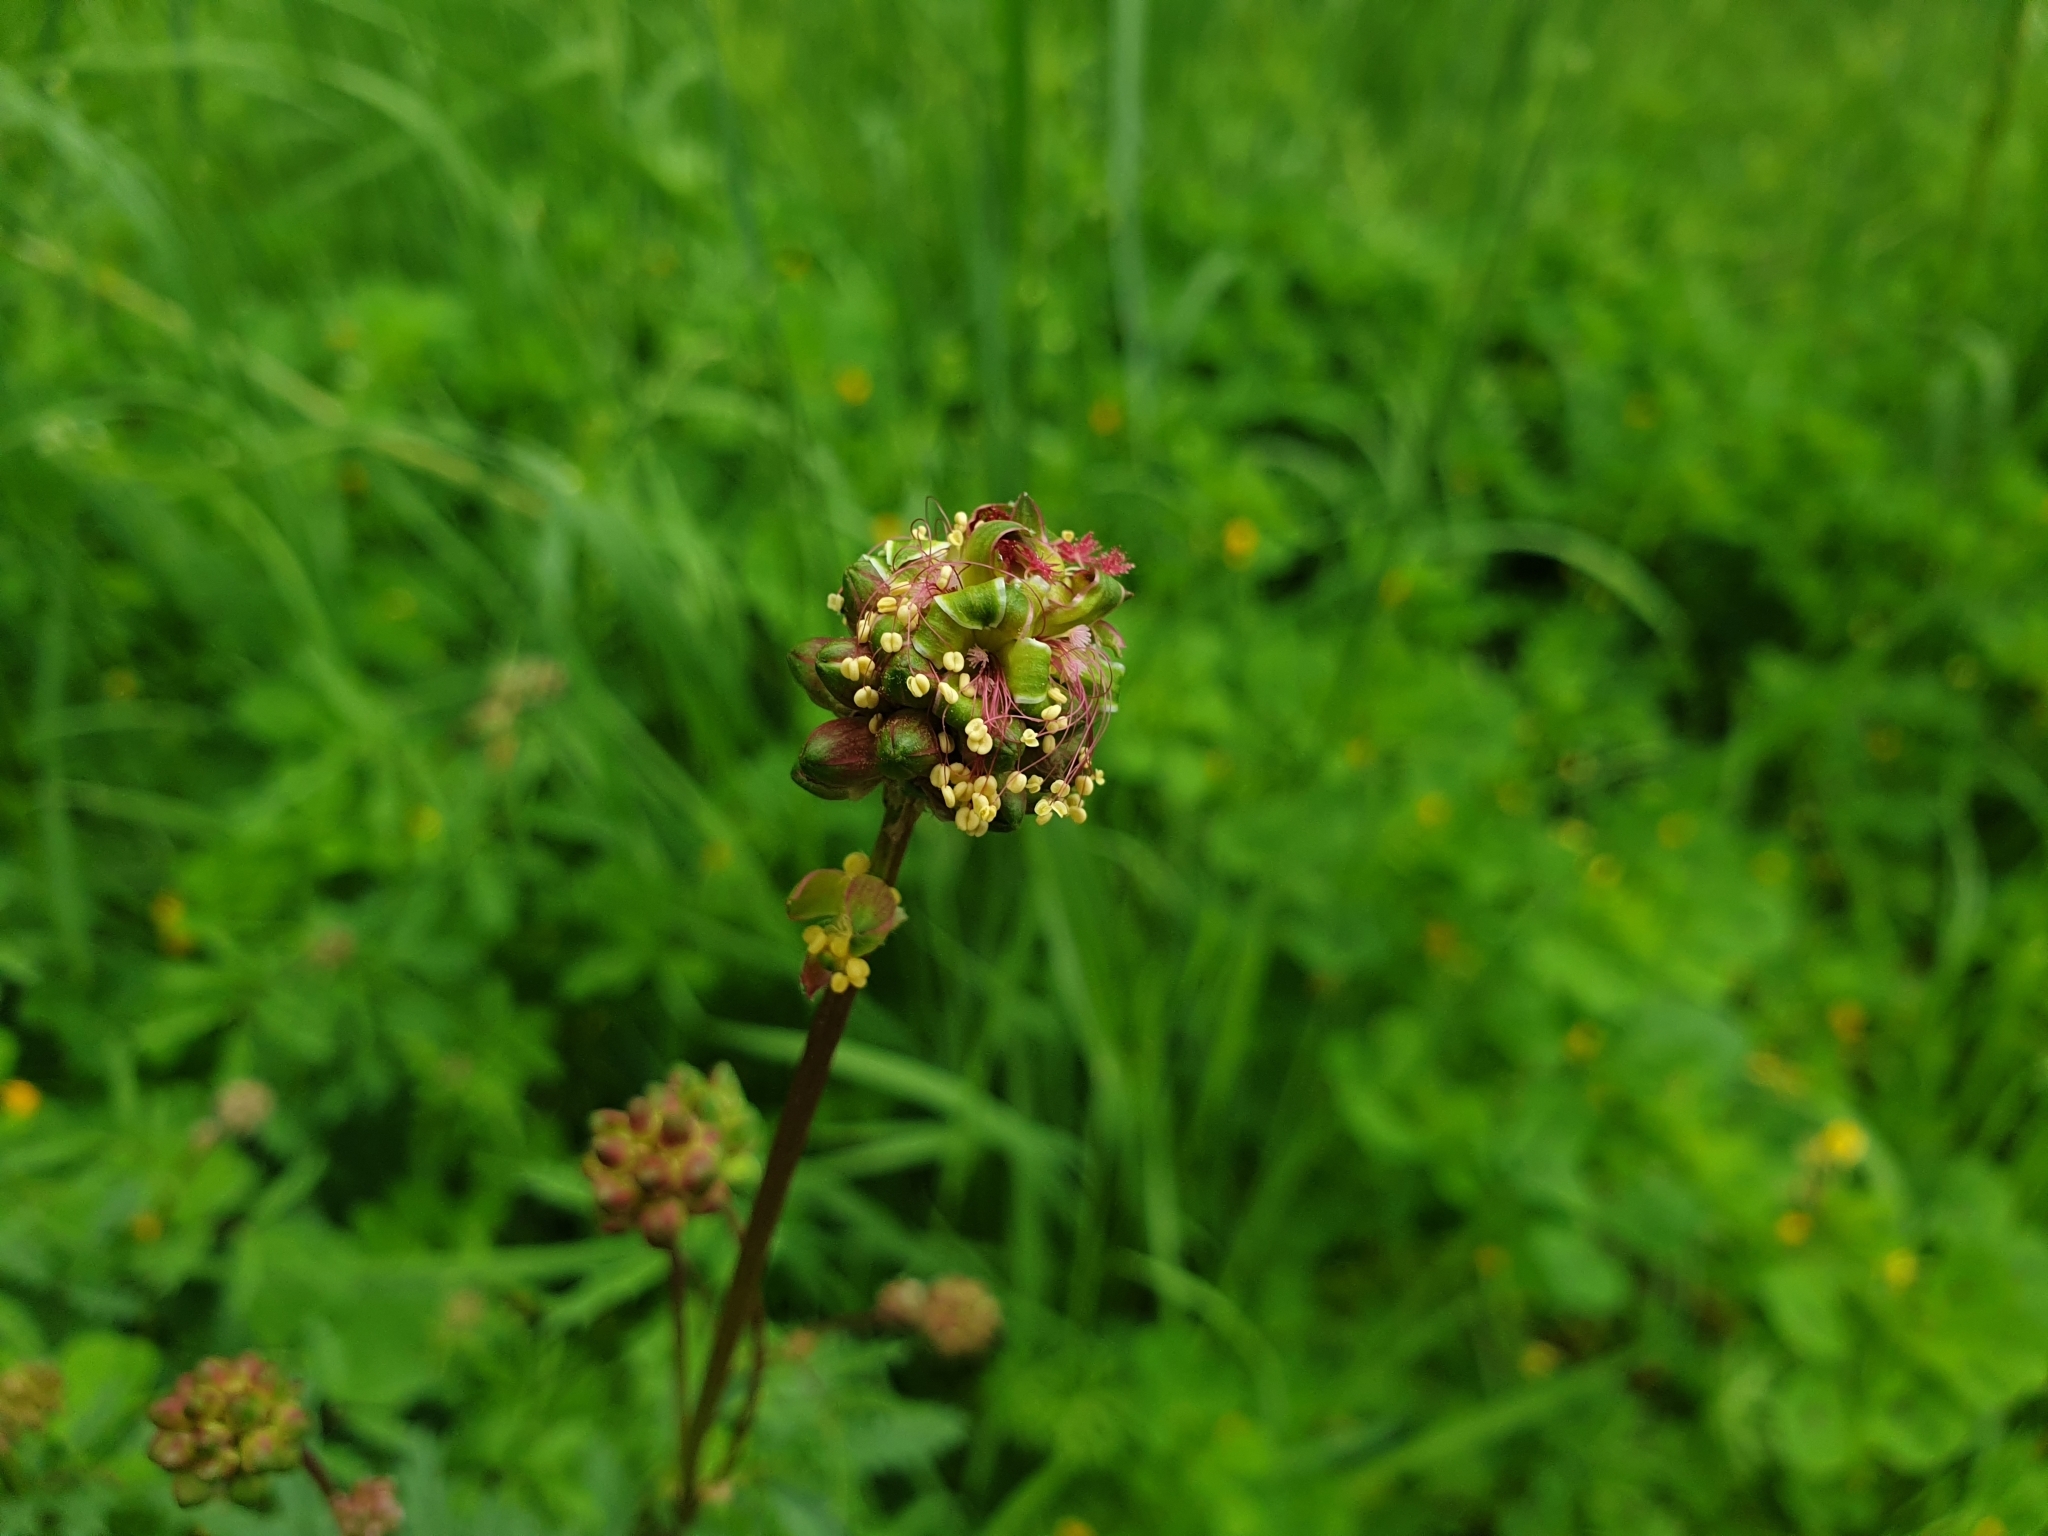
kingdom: Plantae
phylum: Tracheophyta
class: Magnoliopsida
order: Rosales
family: Rosaceae
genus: Poterium
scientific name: Poterium sanguisorba
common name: Salad burnet
